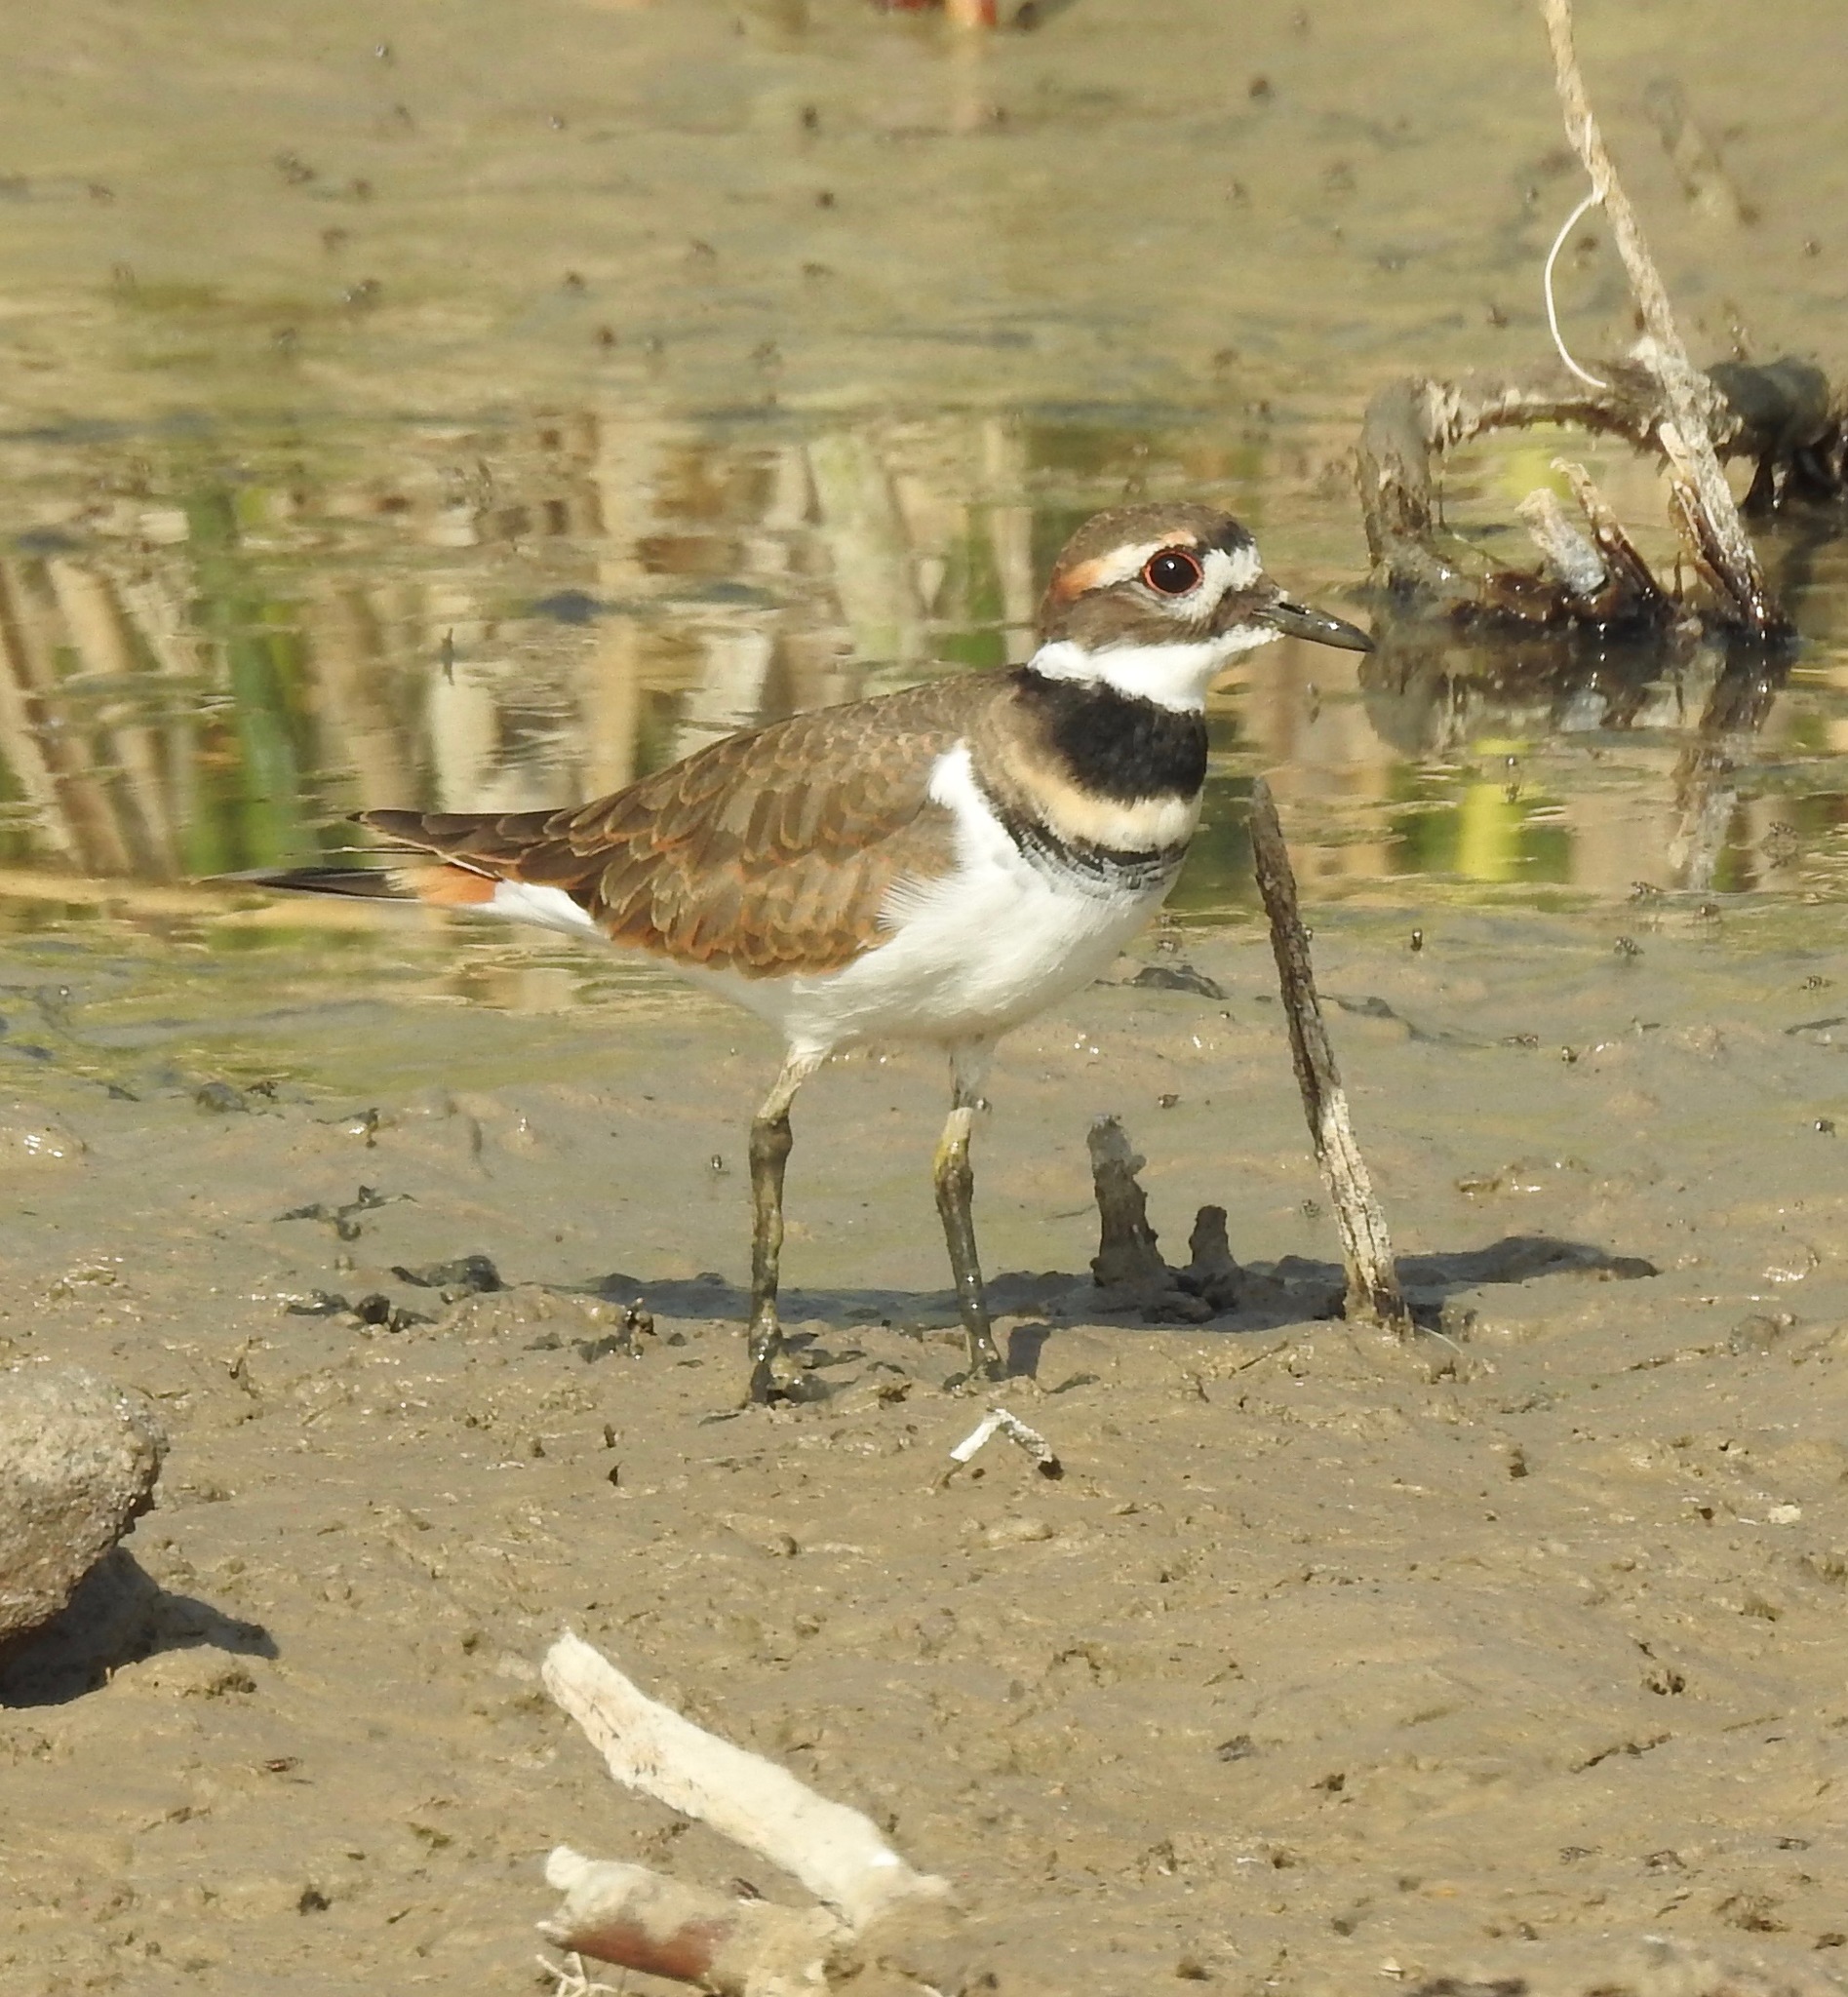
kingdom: Animalia
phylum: Chordata
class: Aves
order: Charadriiformes
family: Charadriidae
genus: Charadrius
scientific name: Charadrius vociferus
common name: Killdeer
